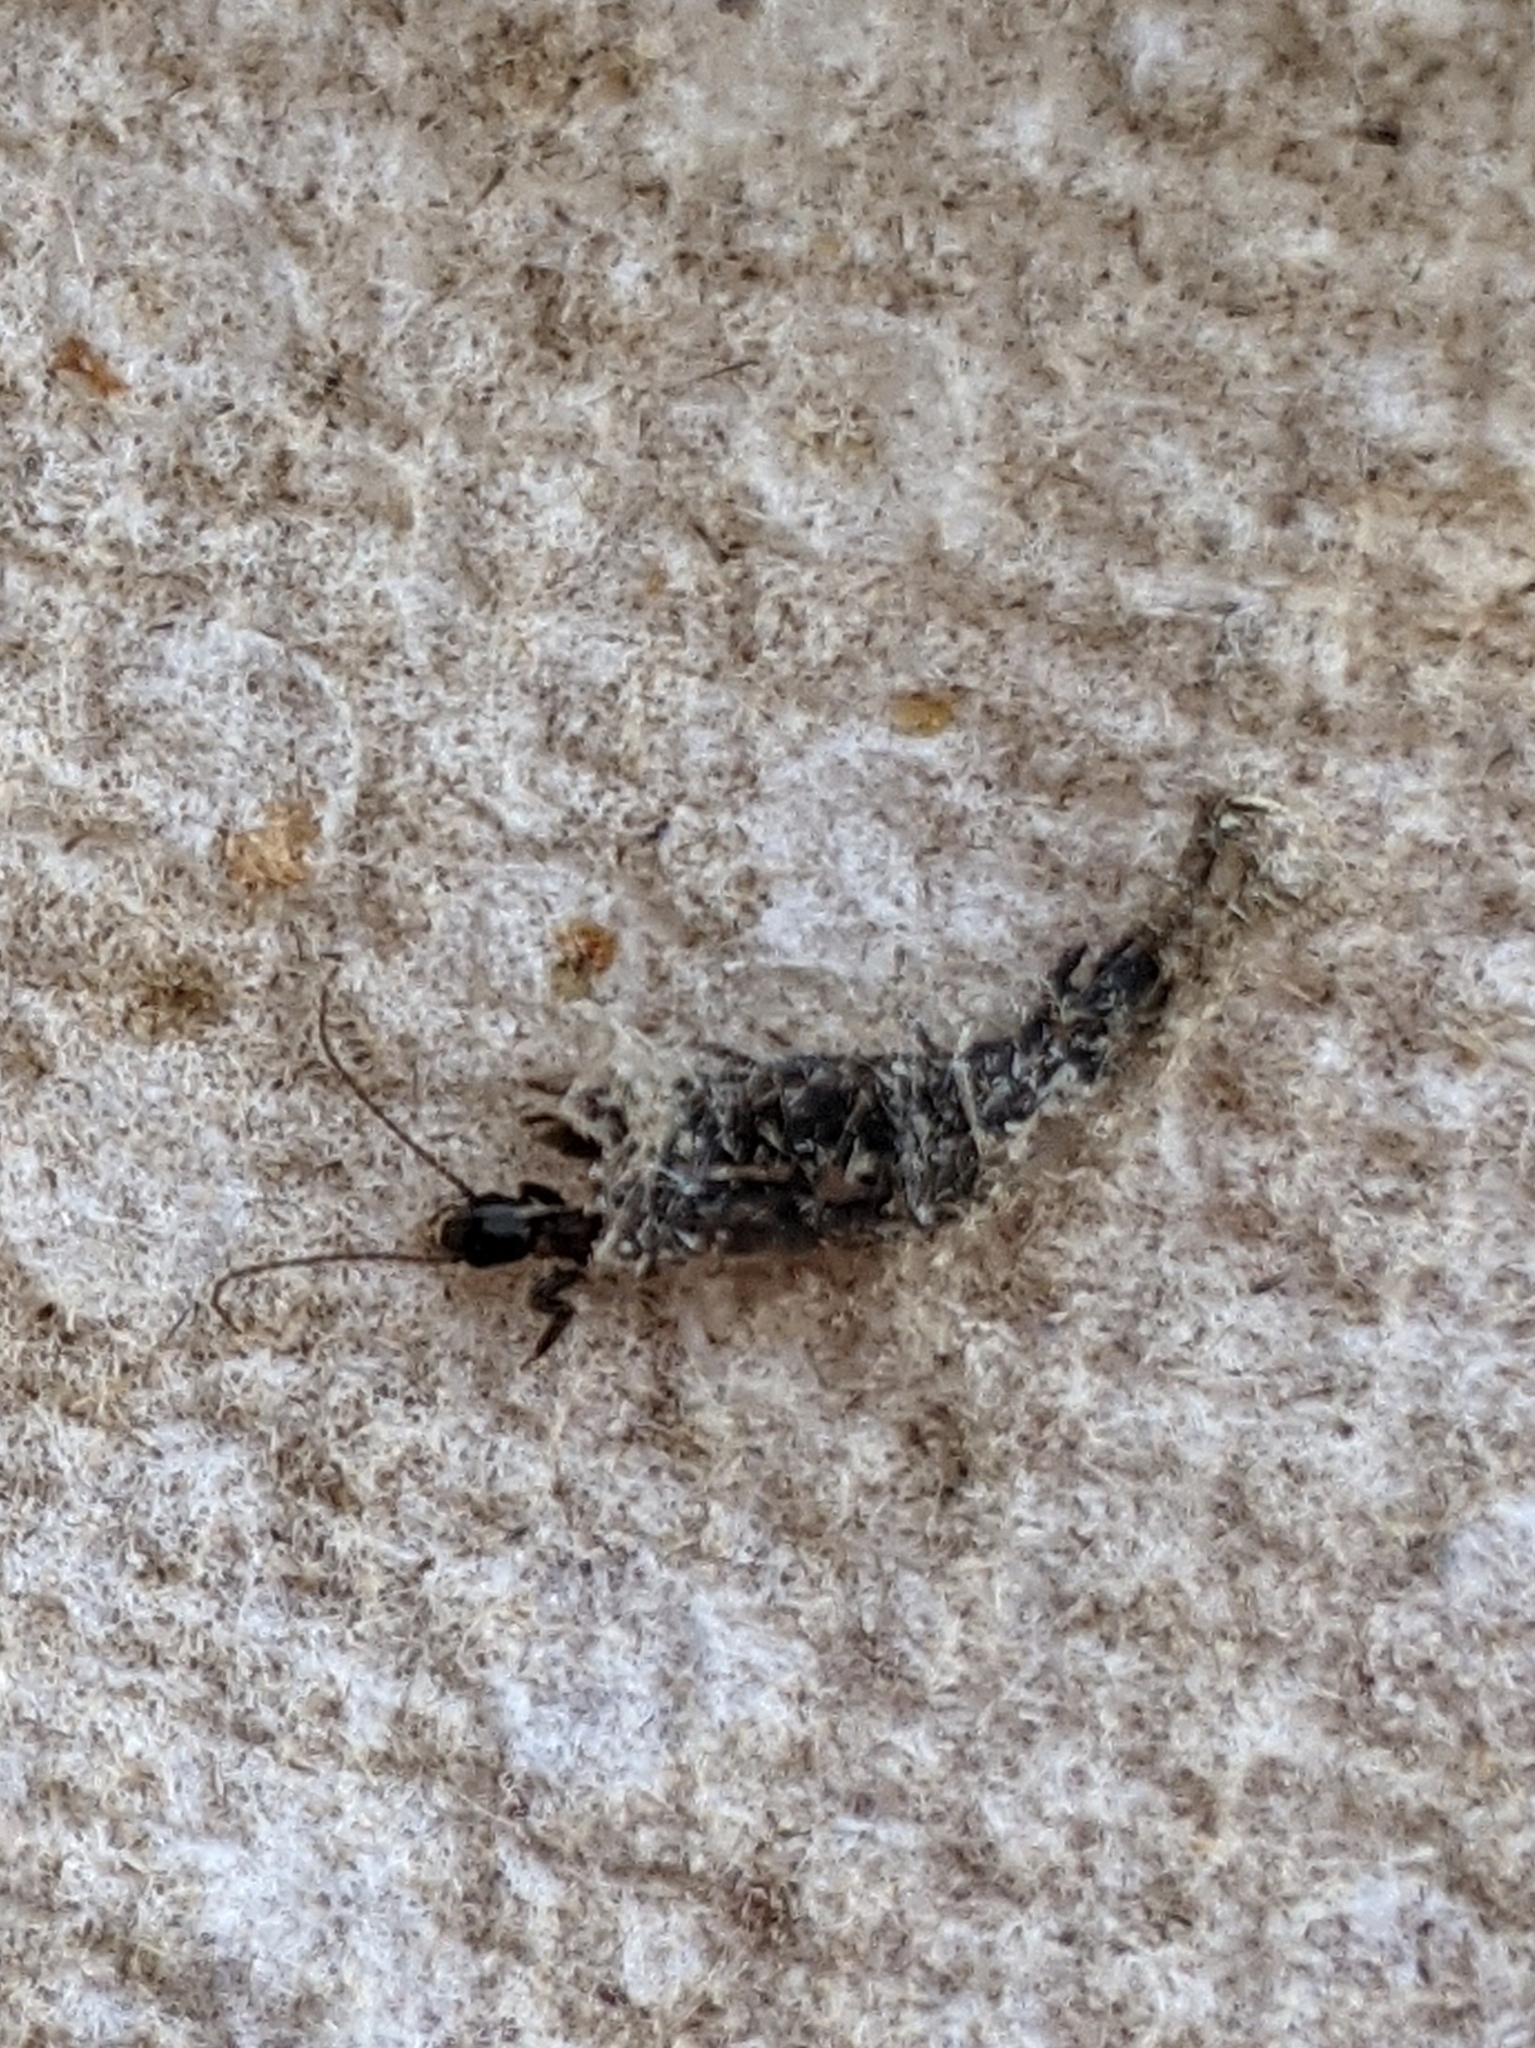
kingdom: Animalia
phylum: Arthropoda
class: Insecta
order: Embioptera
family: Oligotomidae
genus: Oligotoma
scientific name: Oligotoma nigra
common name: Black webspinner
